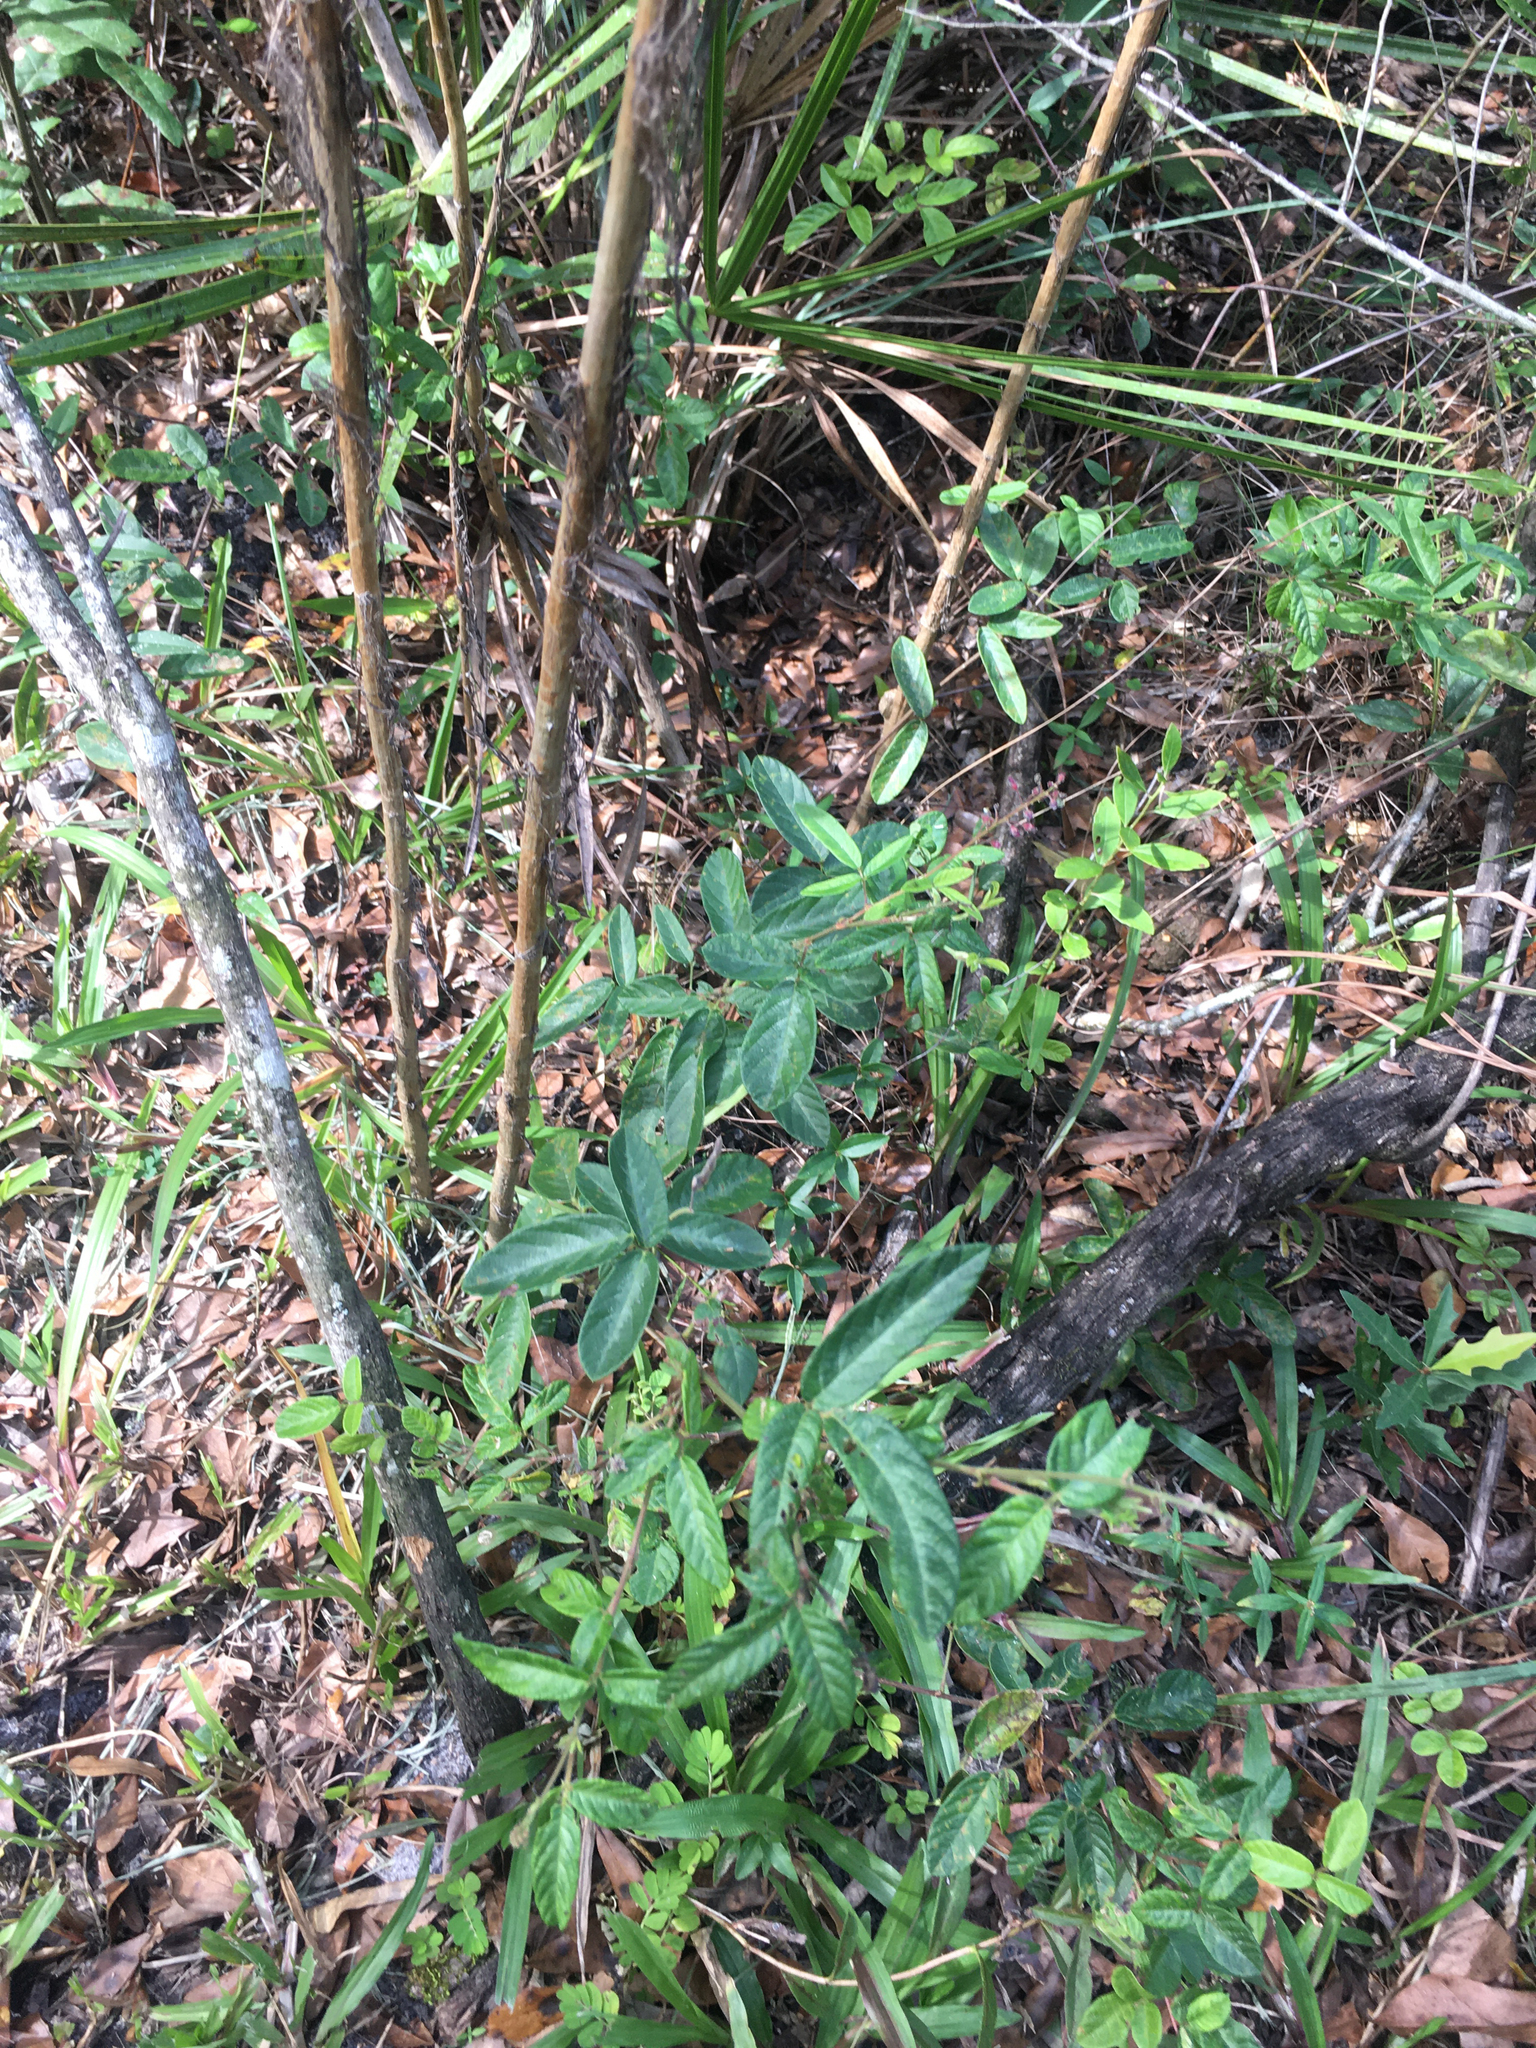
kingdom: Plantae
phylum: Tracheophyta
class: Magnoliopsida
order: Fabales
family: Fabaceae
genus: Desmodium
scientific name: Desmodium incanum
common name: Tickclover
